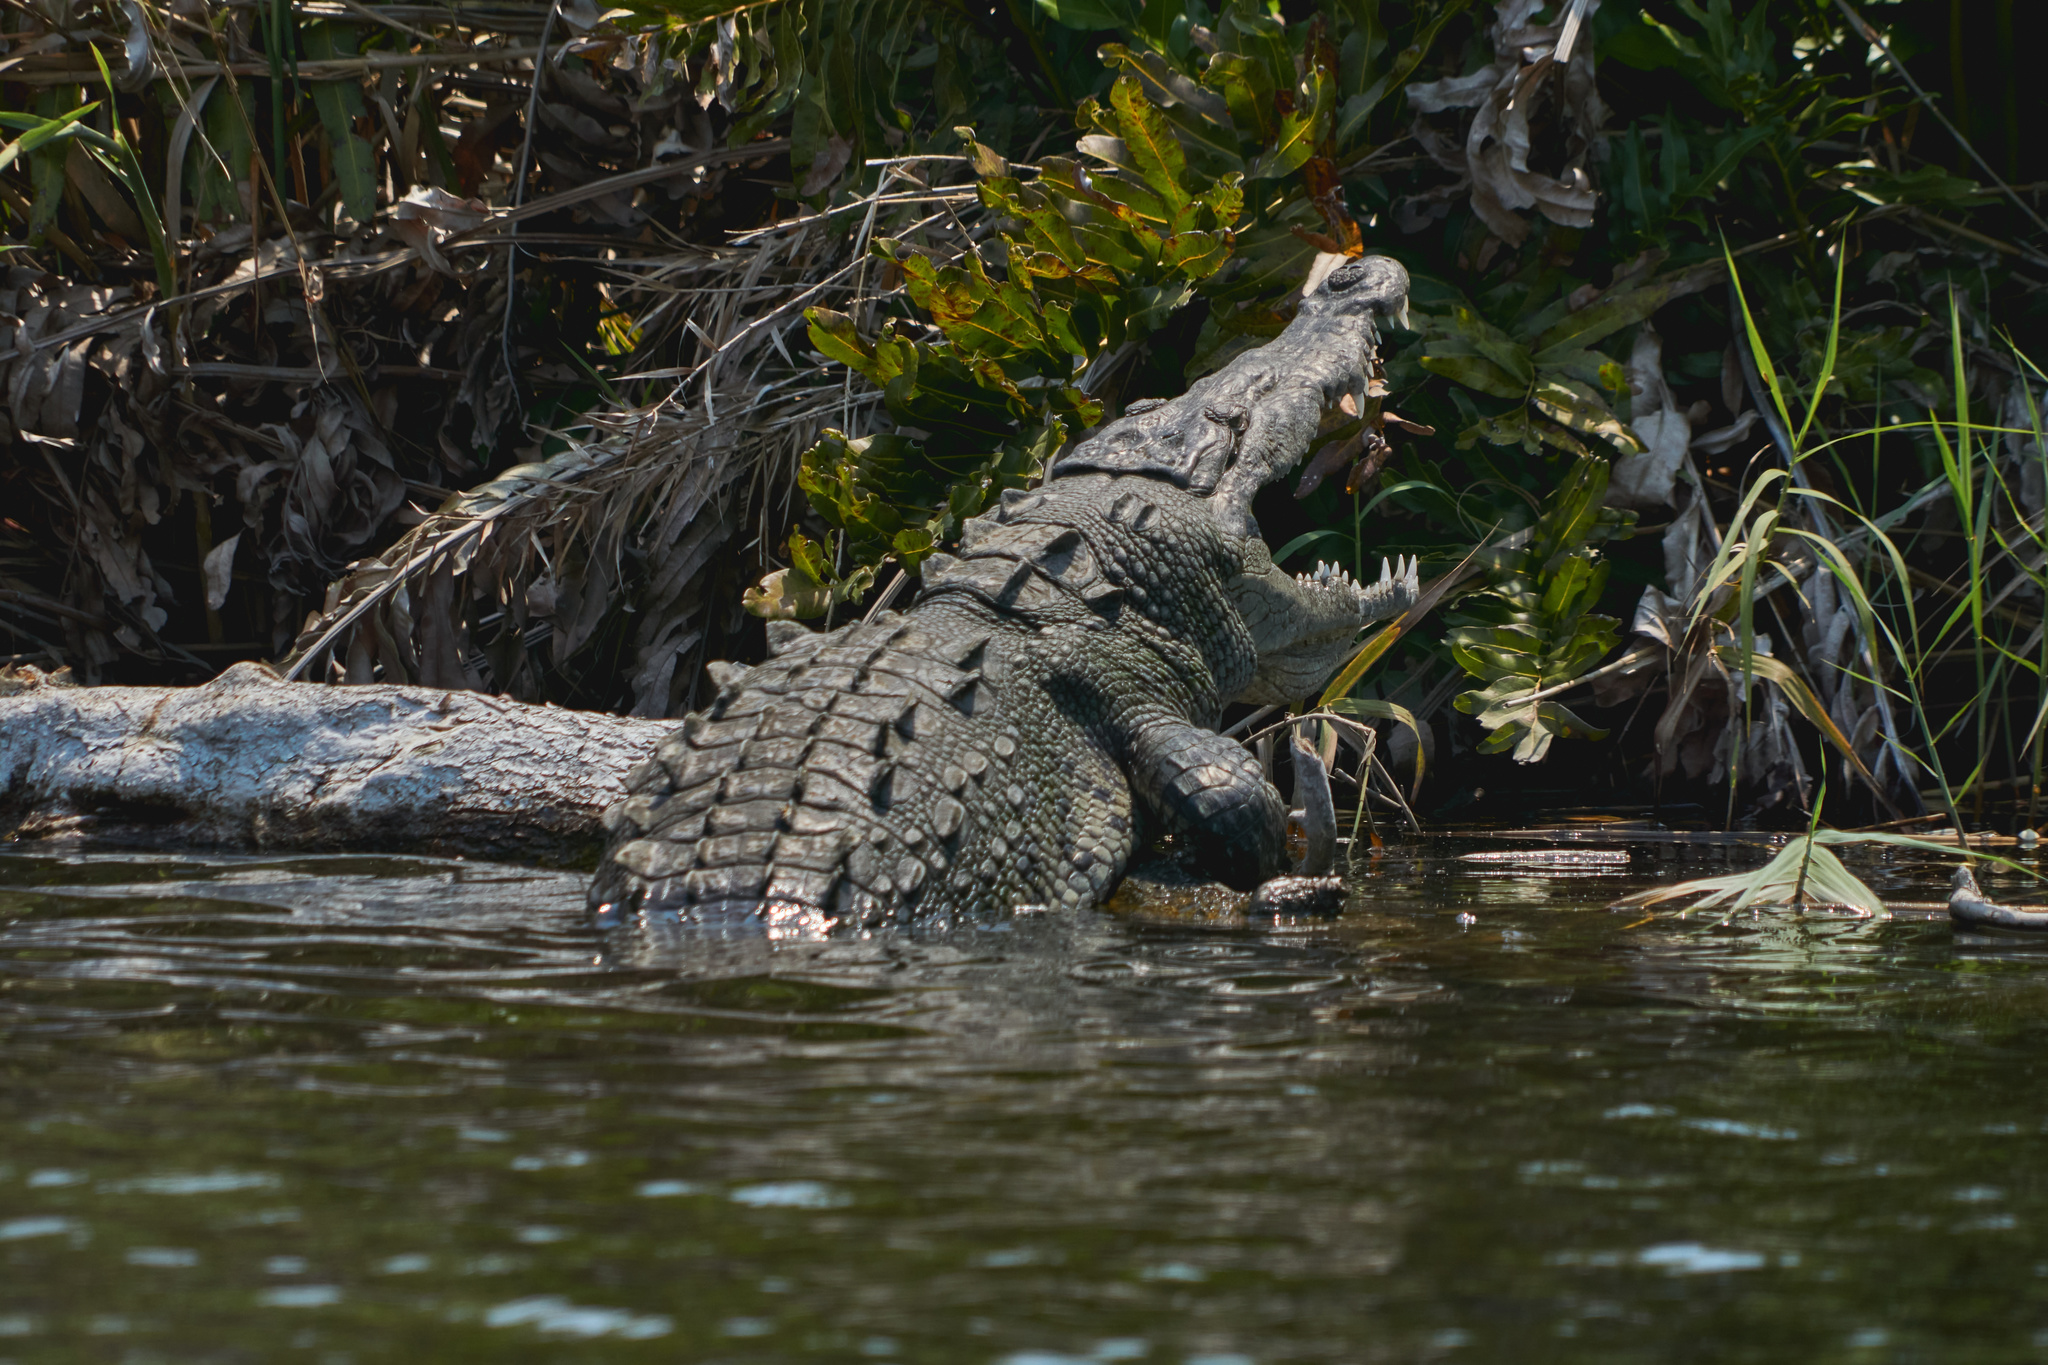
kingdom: Animalia
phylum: Chordata
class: Crocodylia
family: Crocodylidae
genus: Crocodylus
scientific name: Crocodylus acutus
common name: American crocodile
